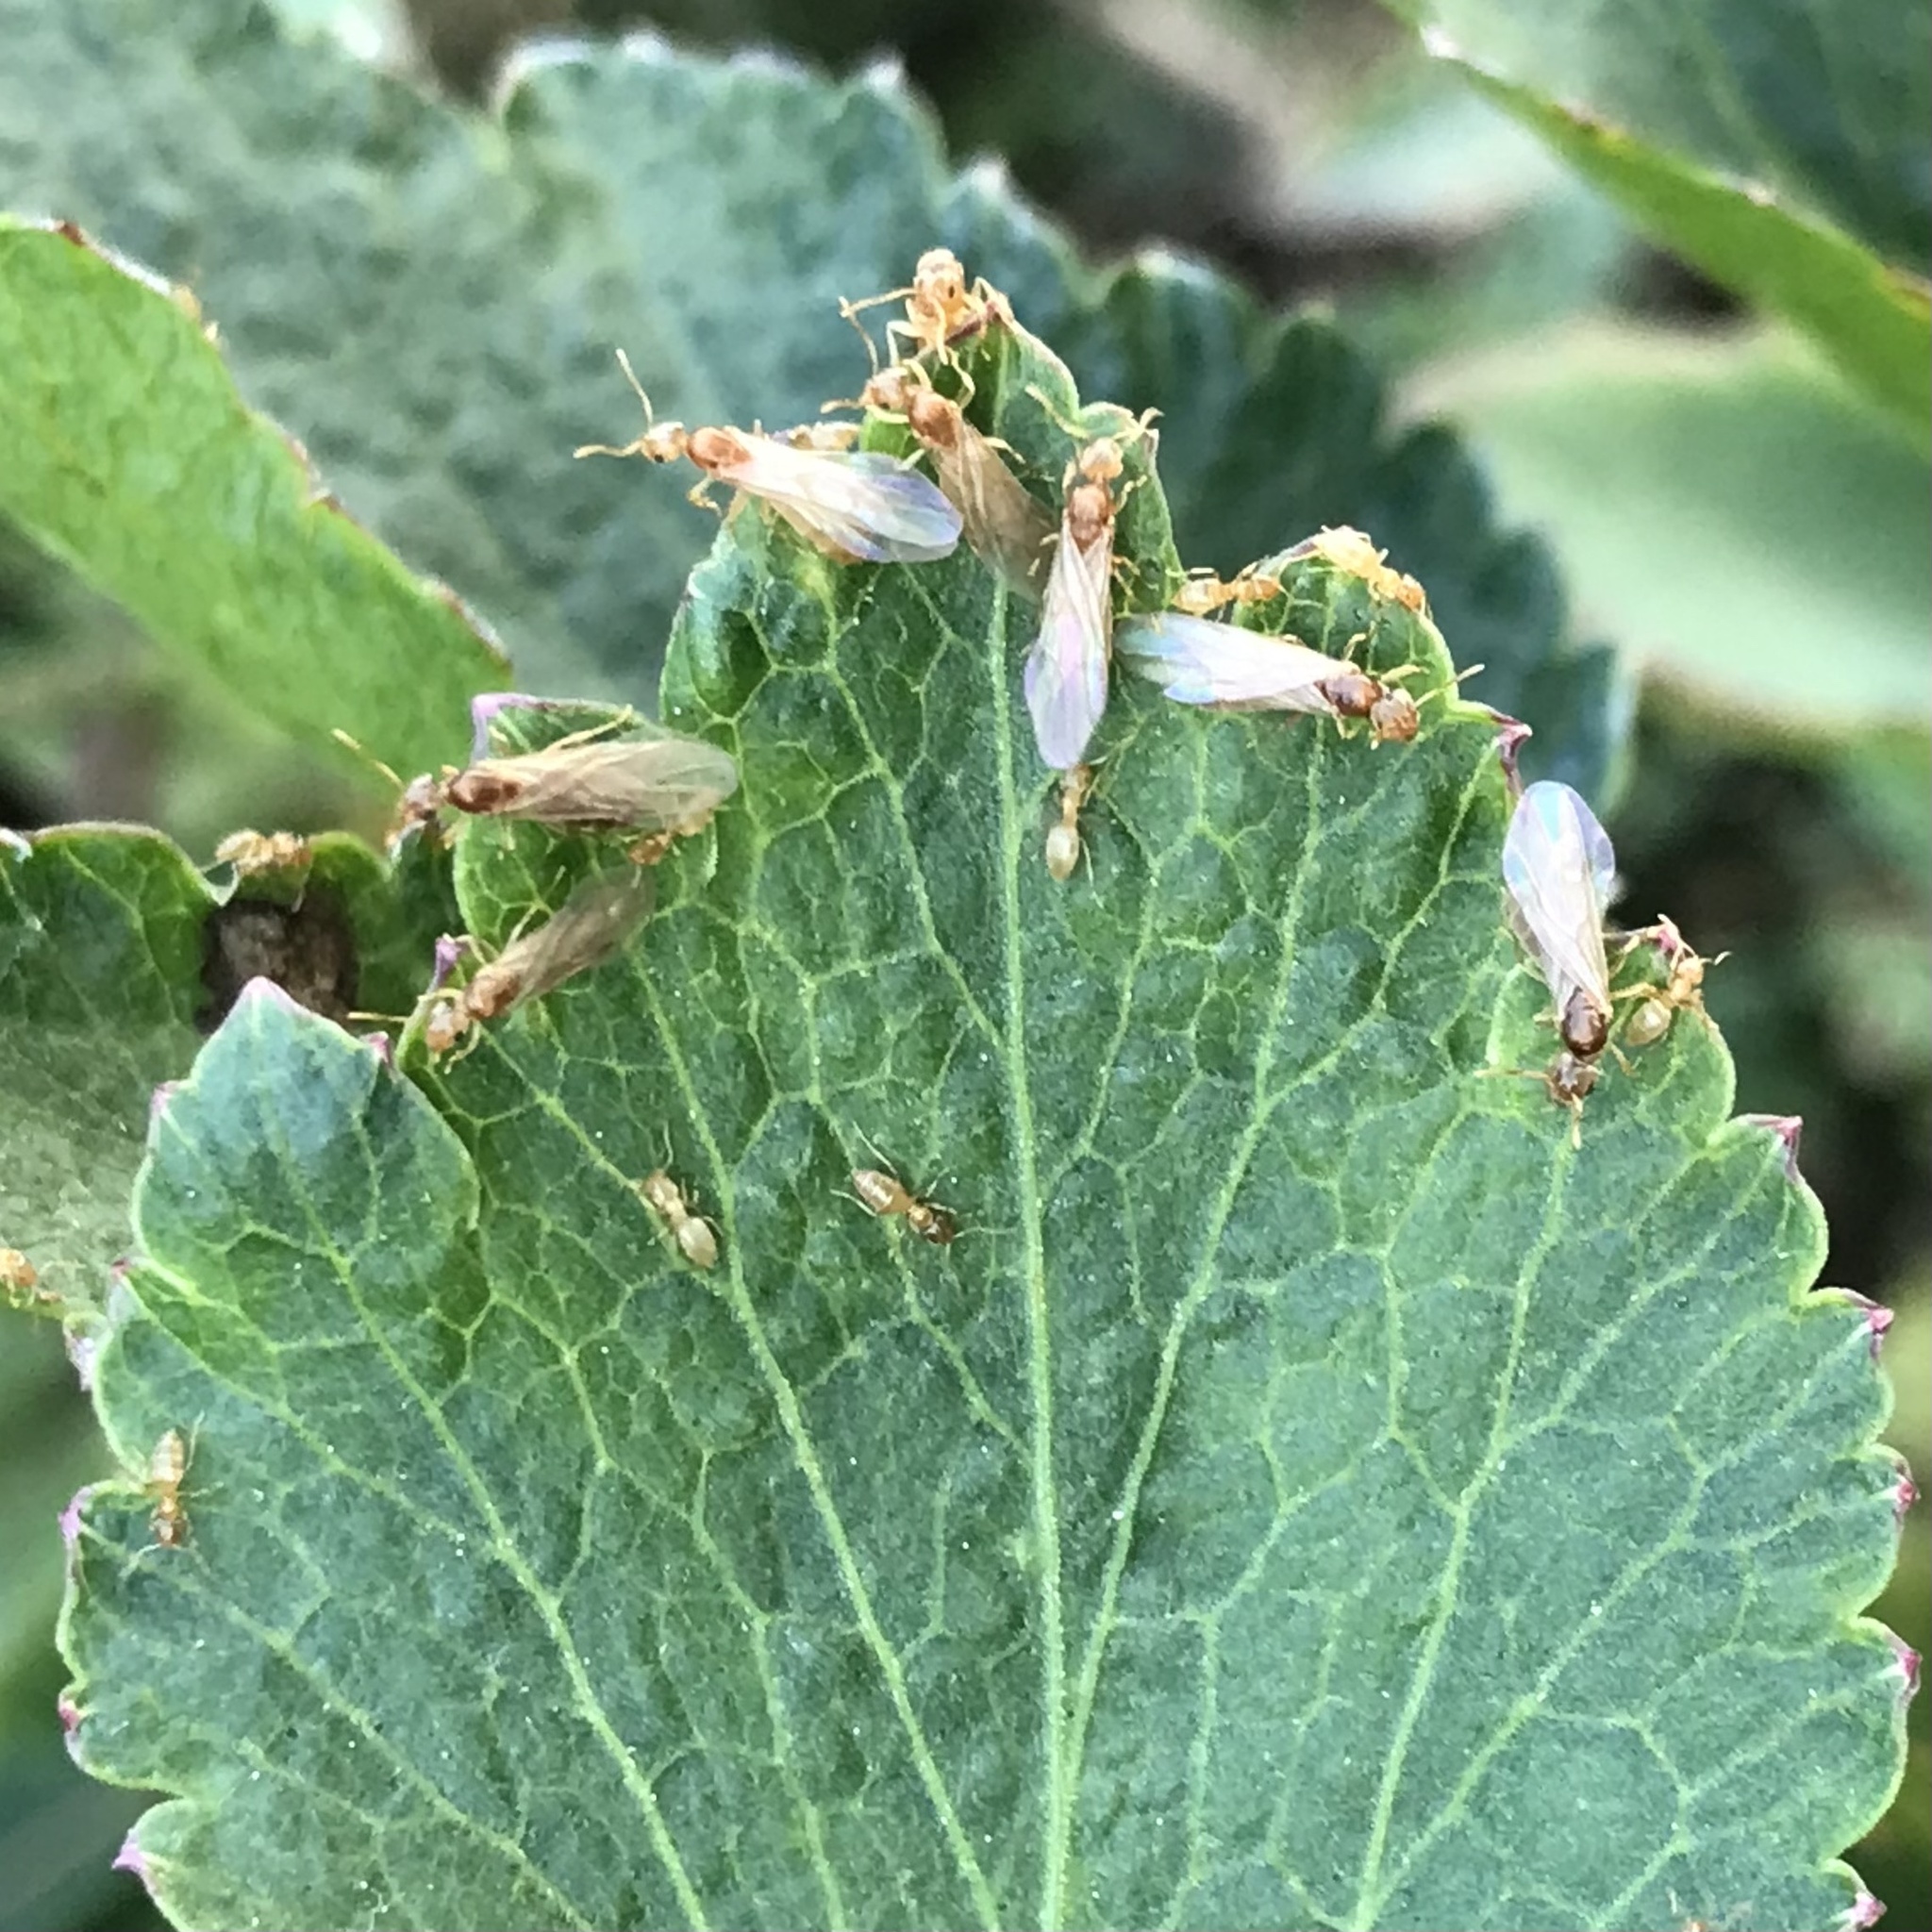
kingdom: Animalia
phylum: Arthropoda
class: Insecta
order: Hymenoptera
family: Formicidae
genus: Brachymyrmex
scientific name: Brachymyrmex depilis
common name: Hairless rover ant
